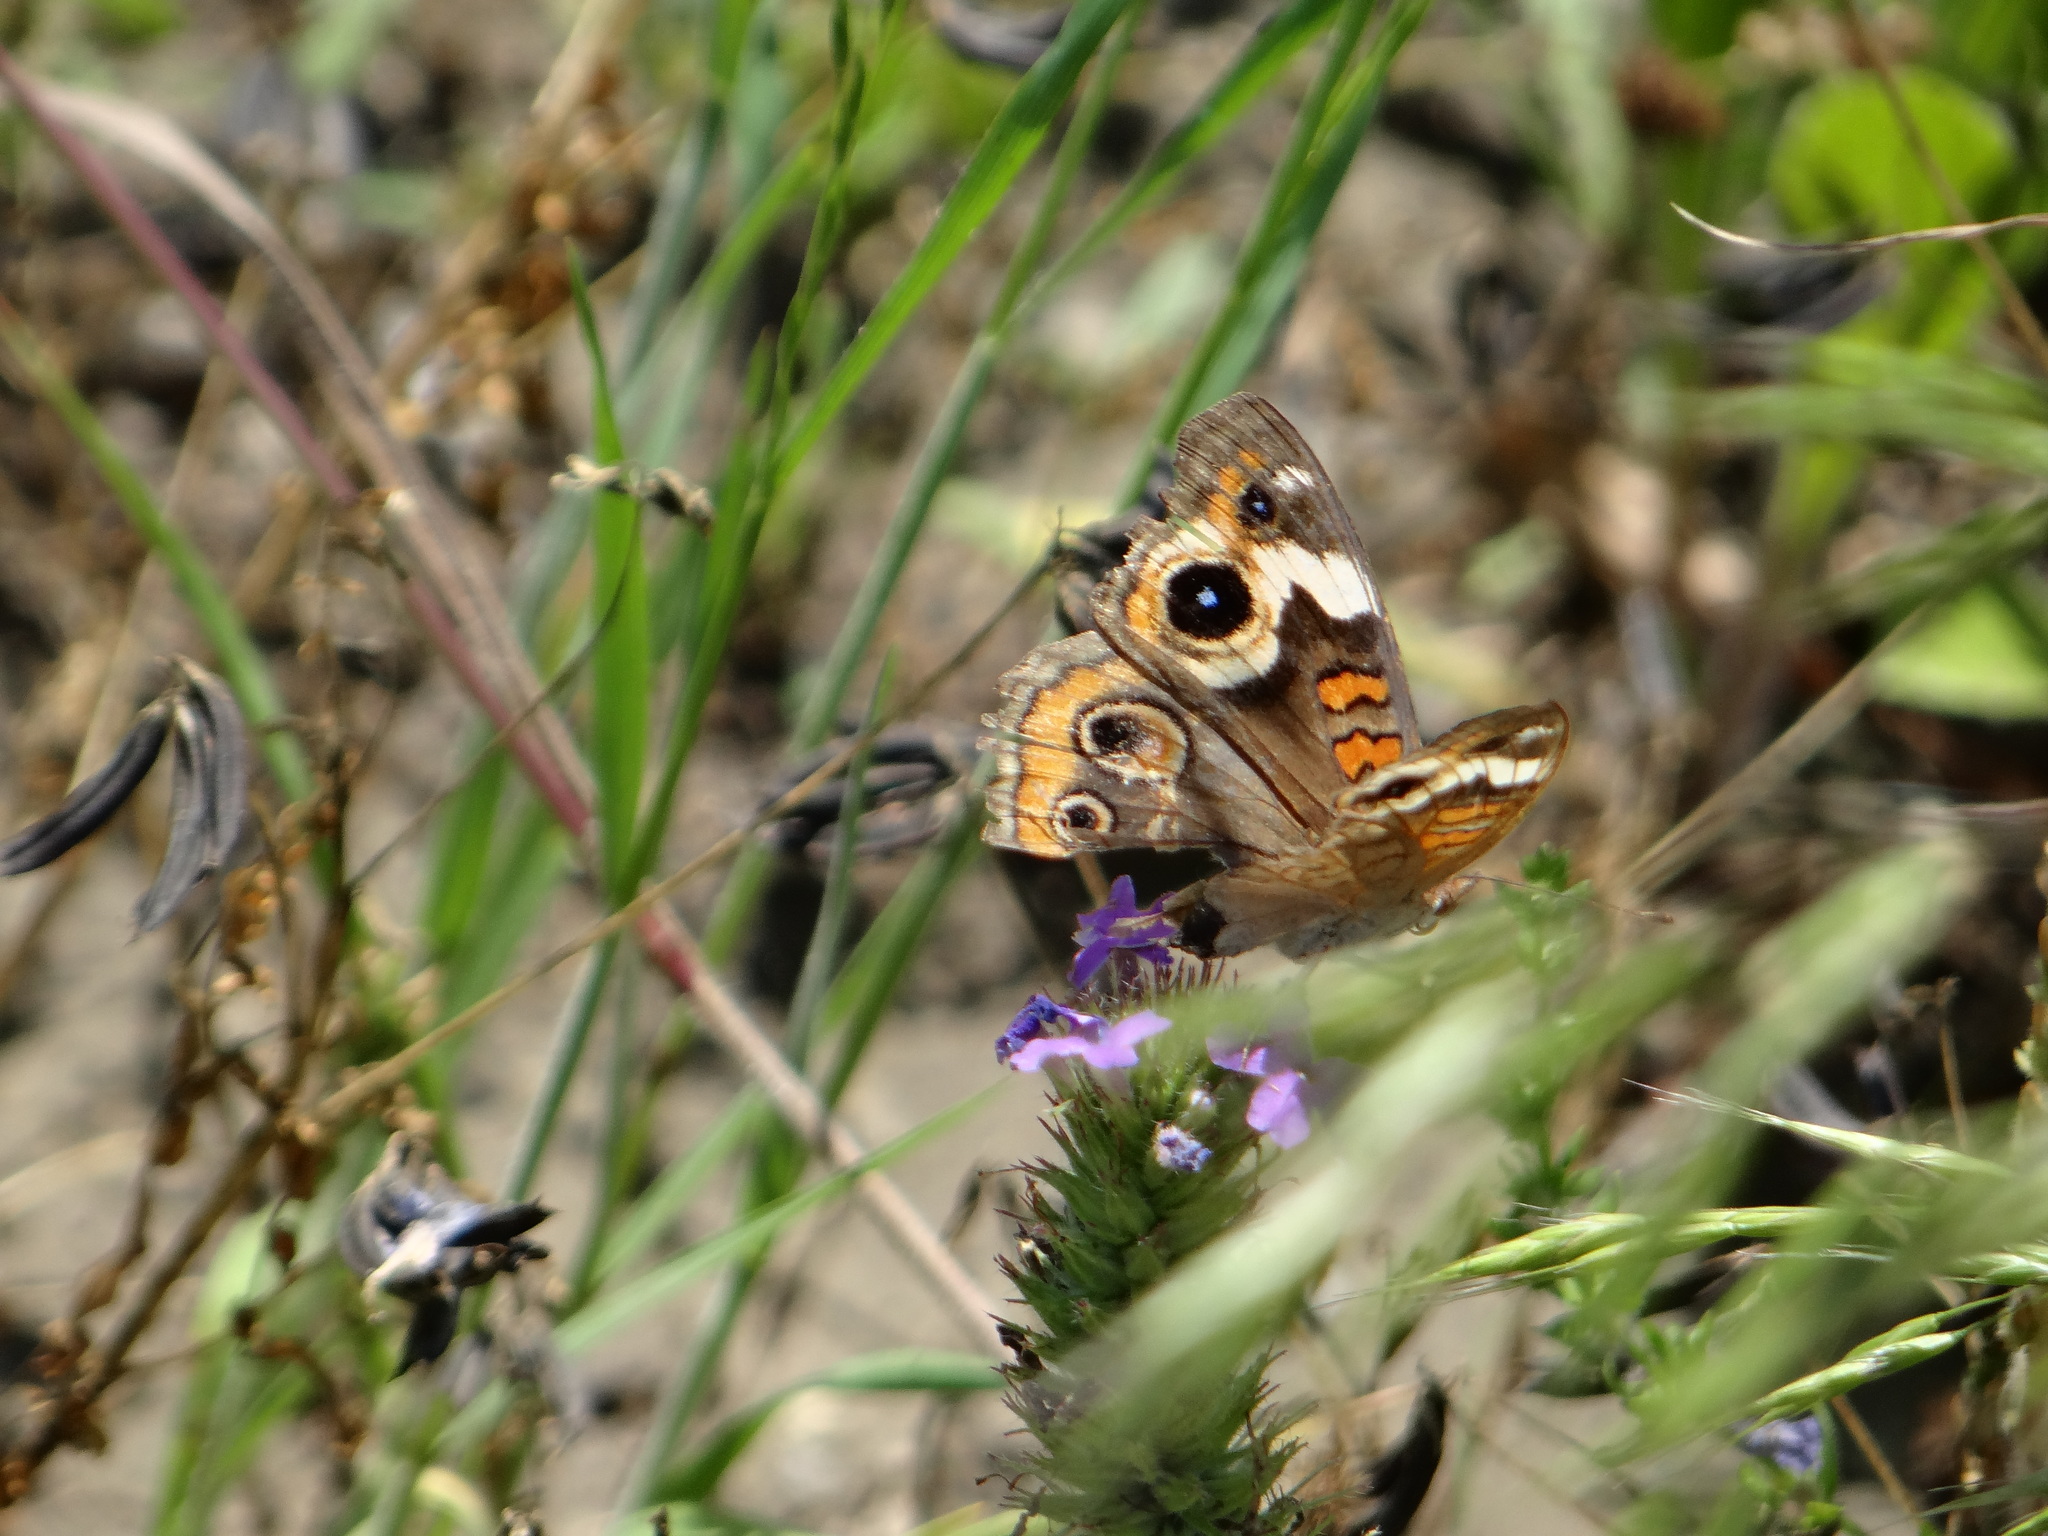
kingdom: Animalia
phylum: Arthropoda
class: Insecta
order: Lepidoptera
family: Nymphalidae
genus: Junonia
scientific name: Junonia coenia
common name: Common buckeye
